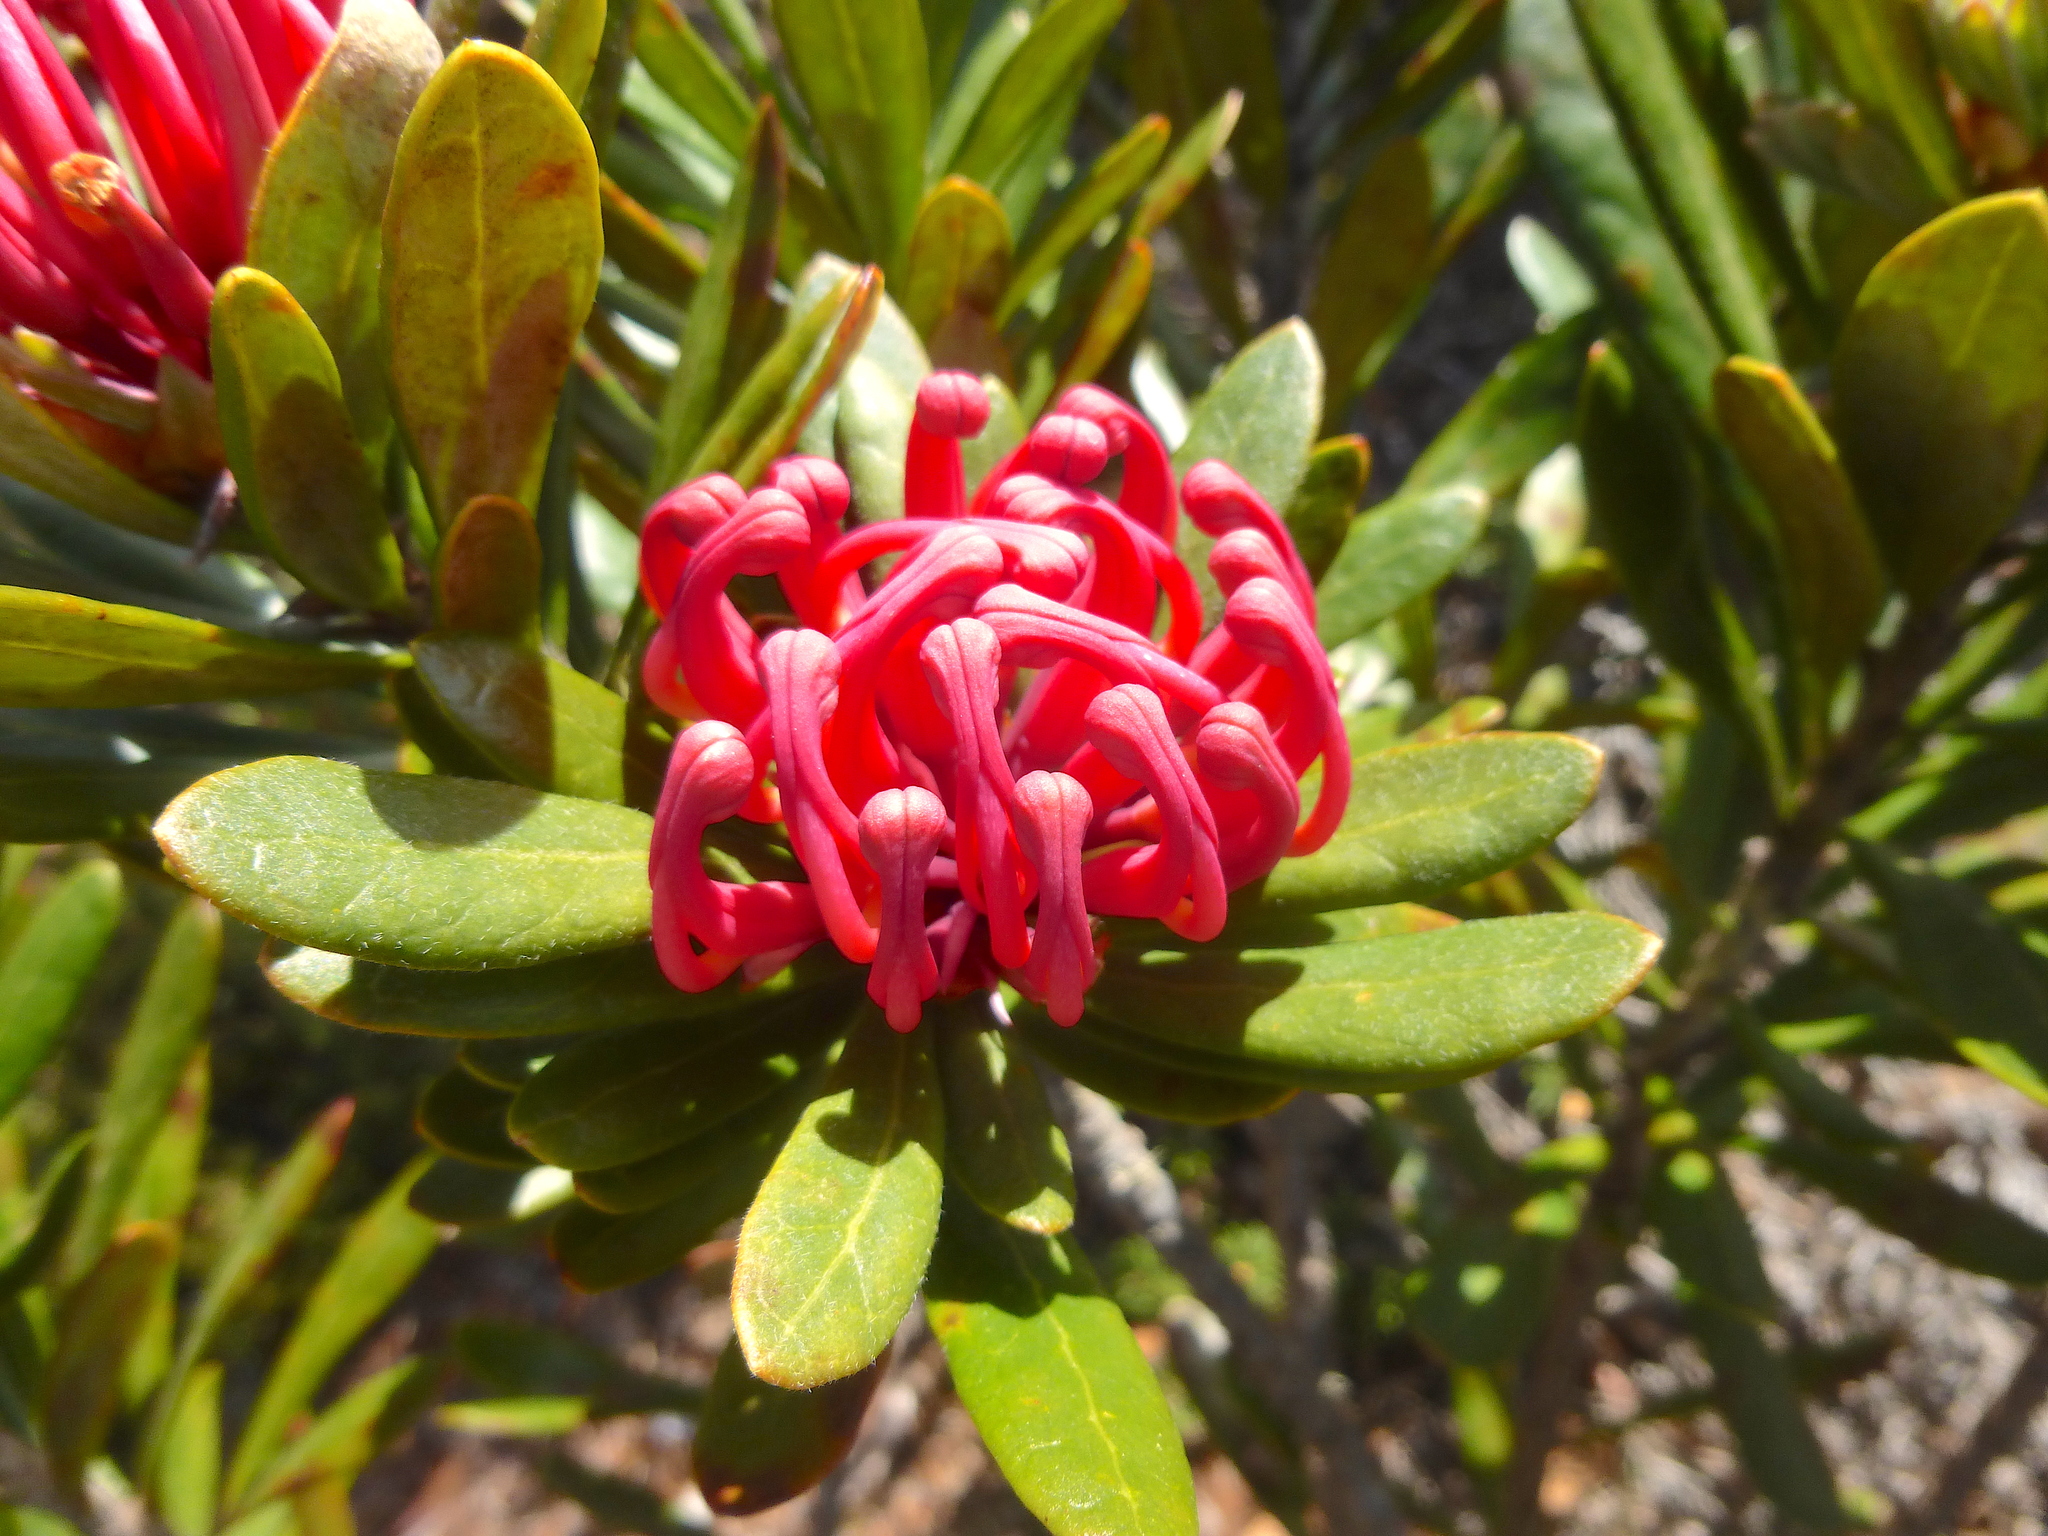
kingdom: Plantae
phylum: Tracheophyta
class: Magnoliopsida
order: Proteales
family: Proteaceae
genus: Telopea
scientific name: Telopea truncata
